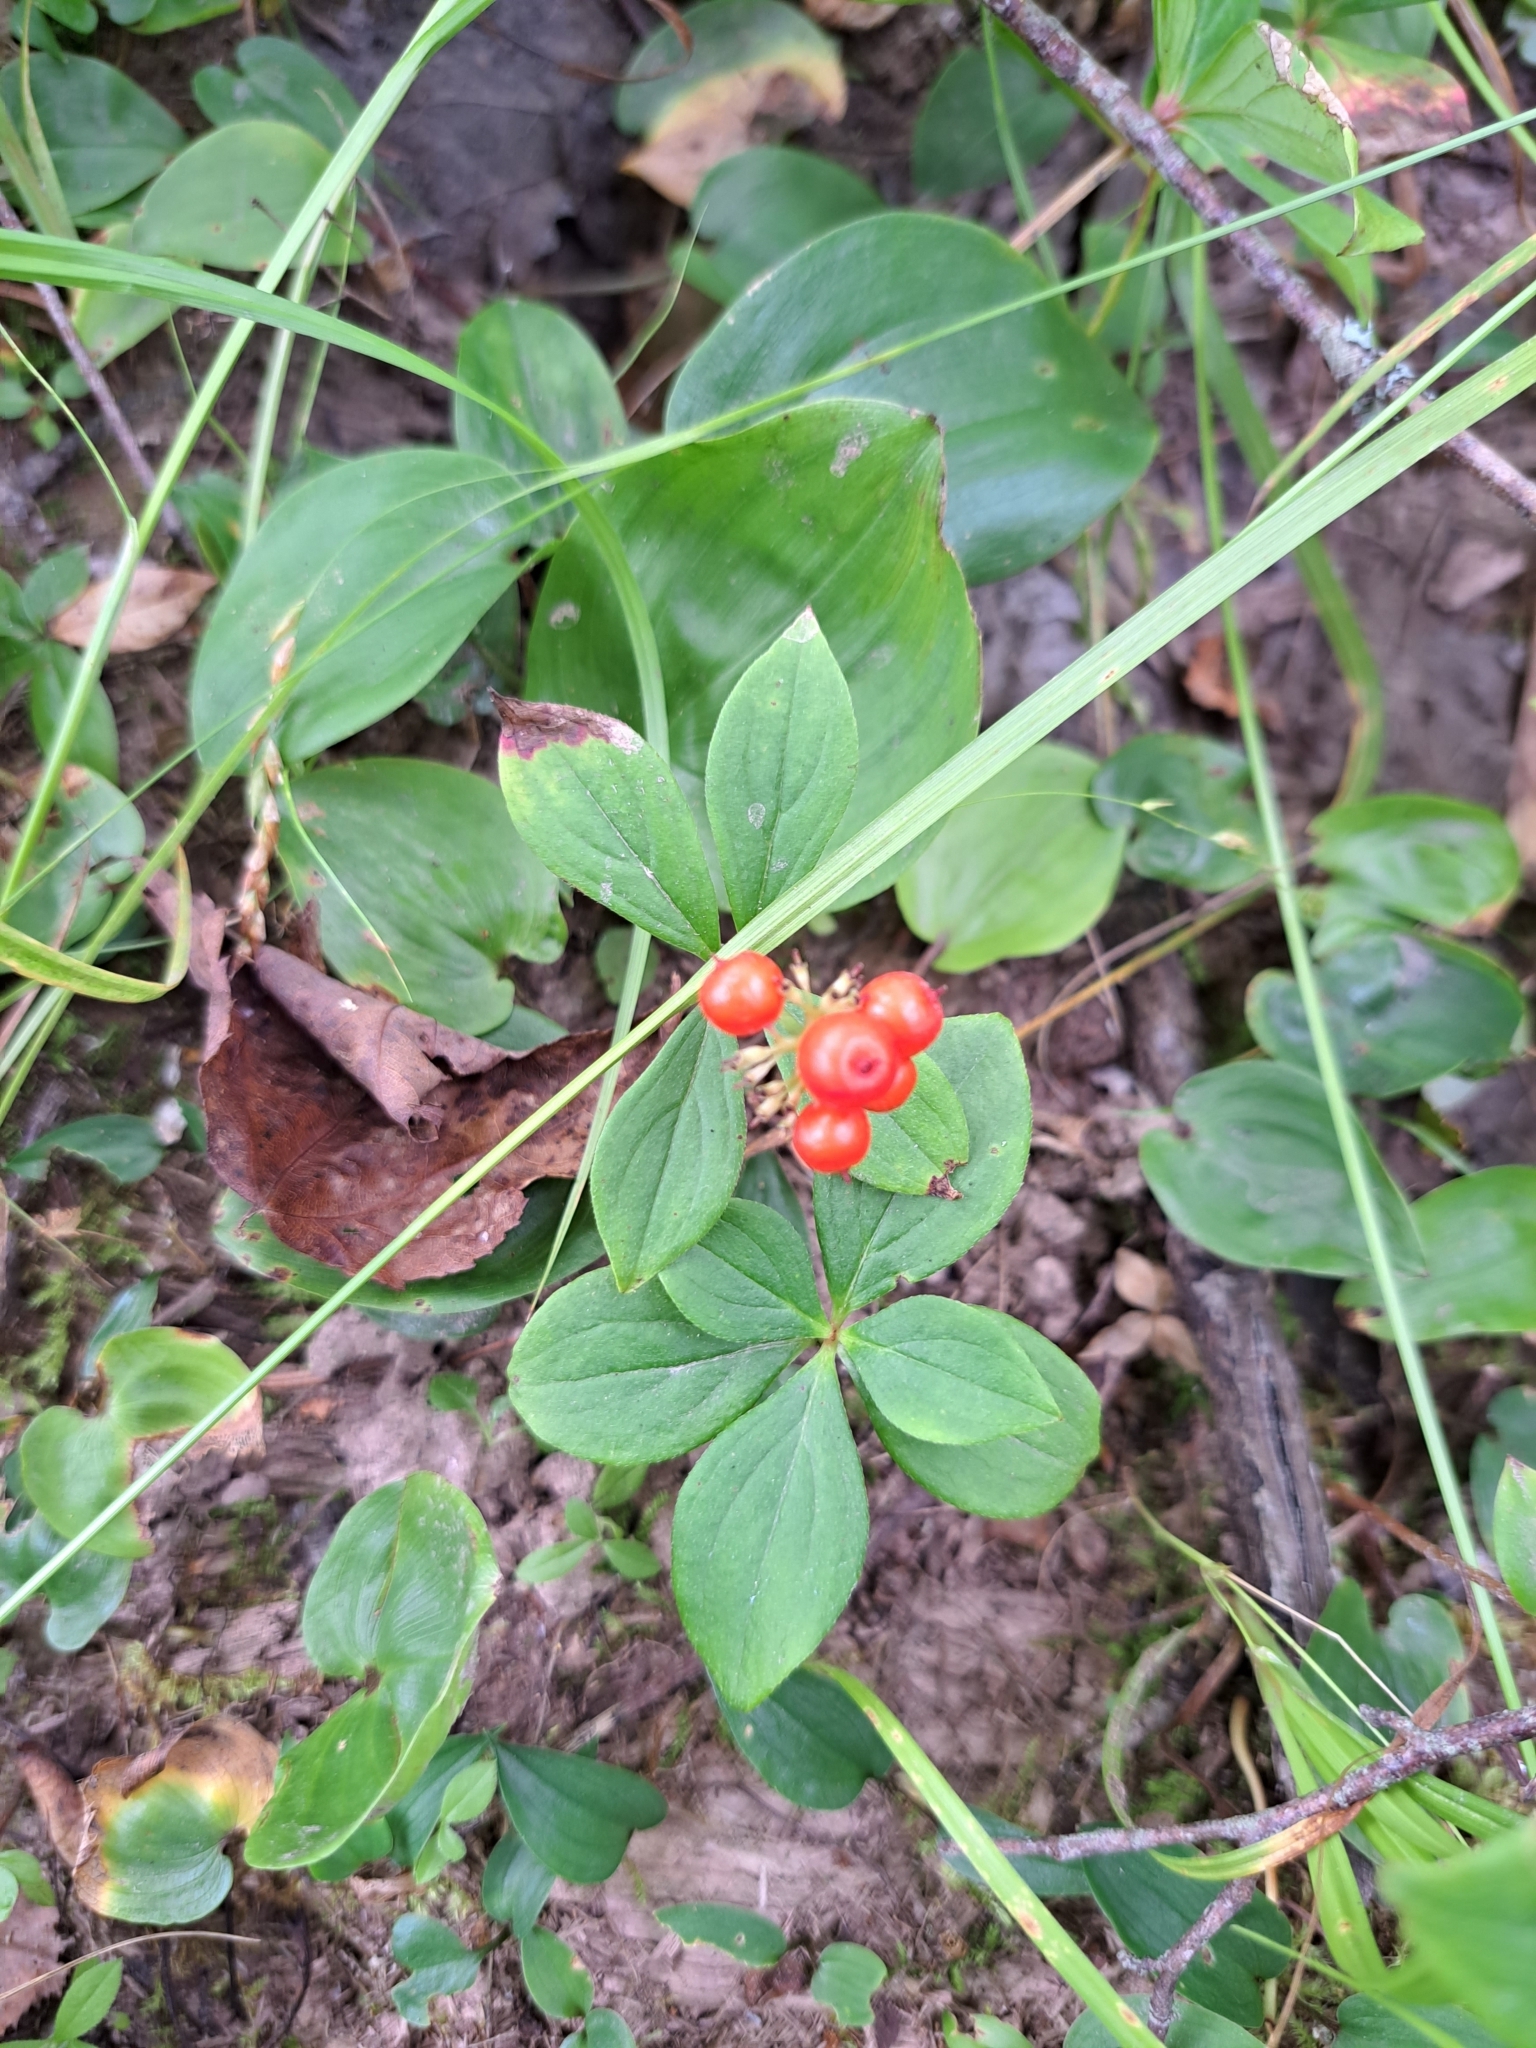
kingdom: Plantae
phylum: Tracheophyta
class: Magnoliopsida
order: Cornales
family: Cornaceae
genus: Cornus
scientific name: Cornus canadensis
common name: Creeping dogwood
